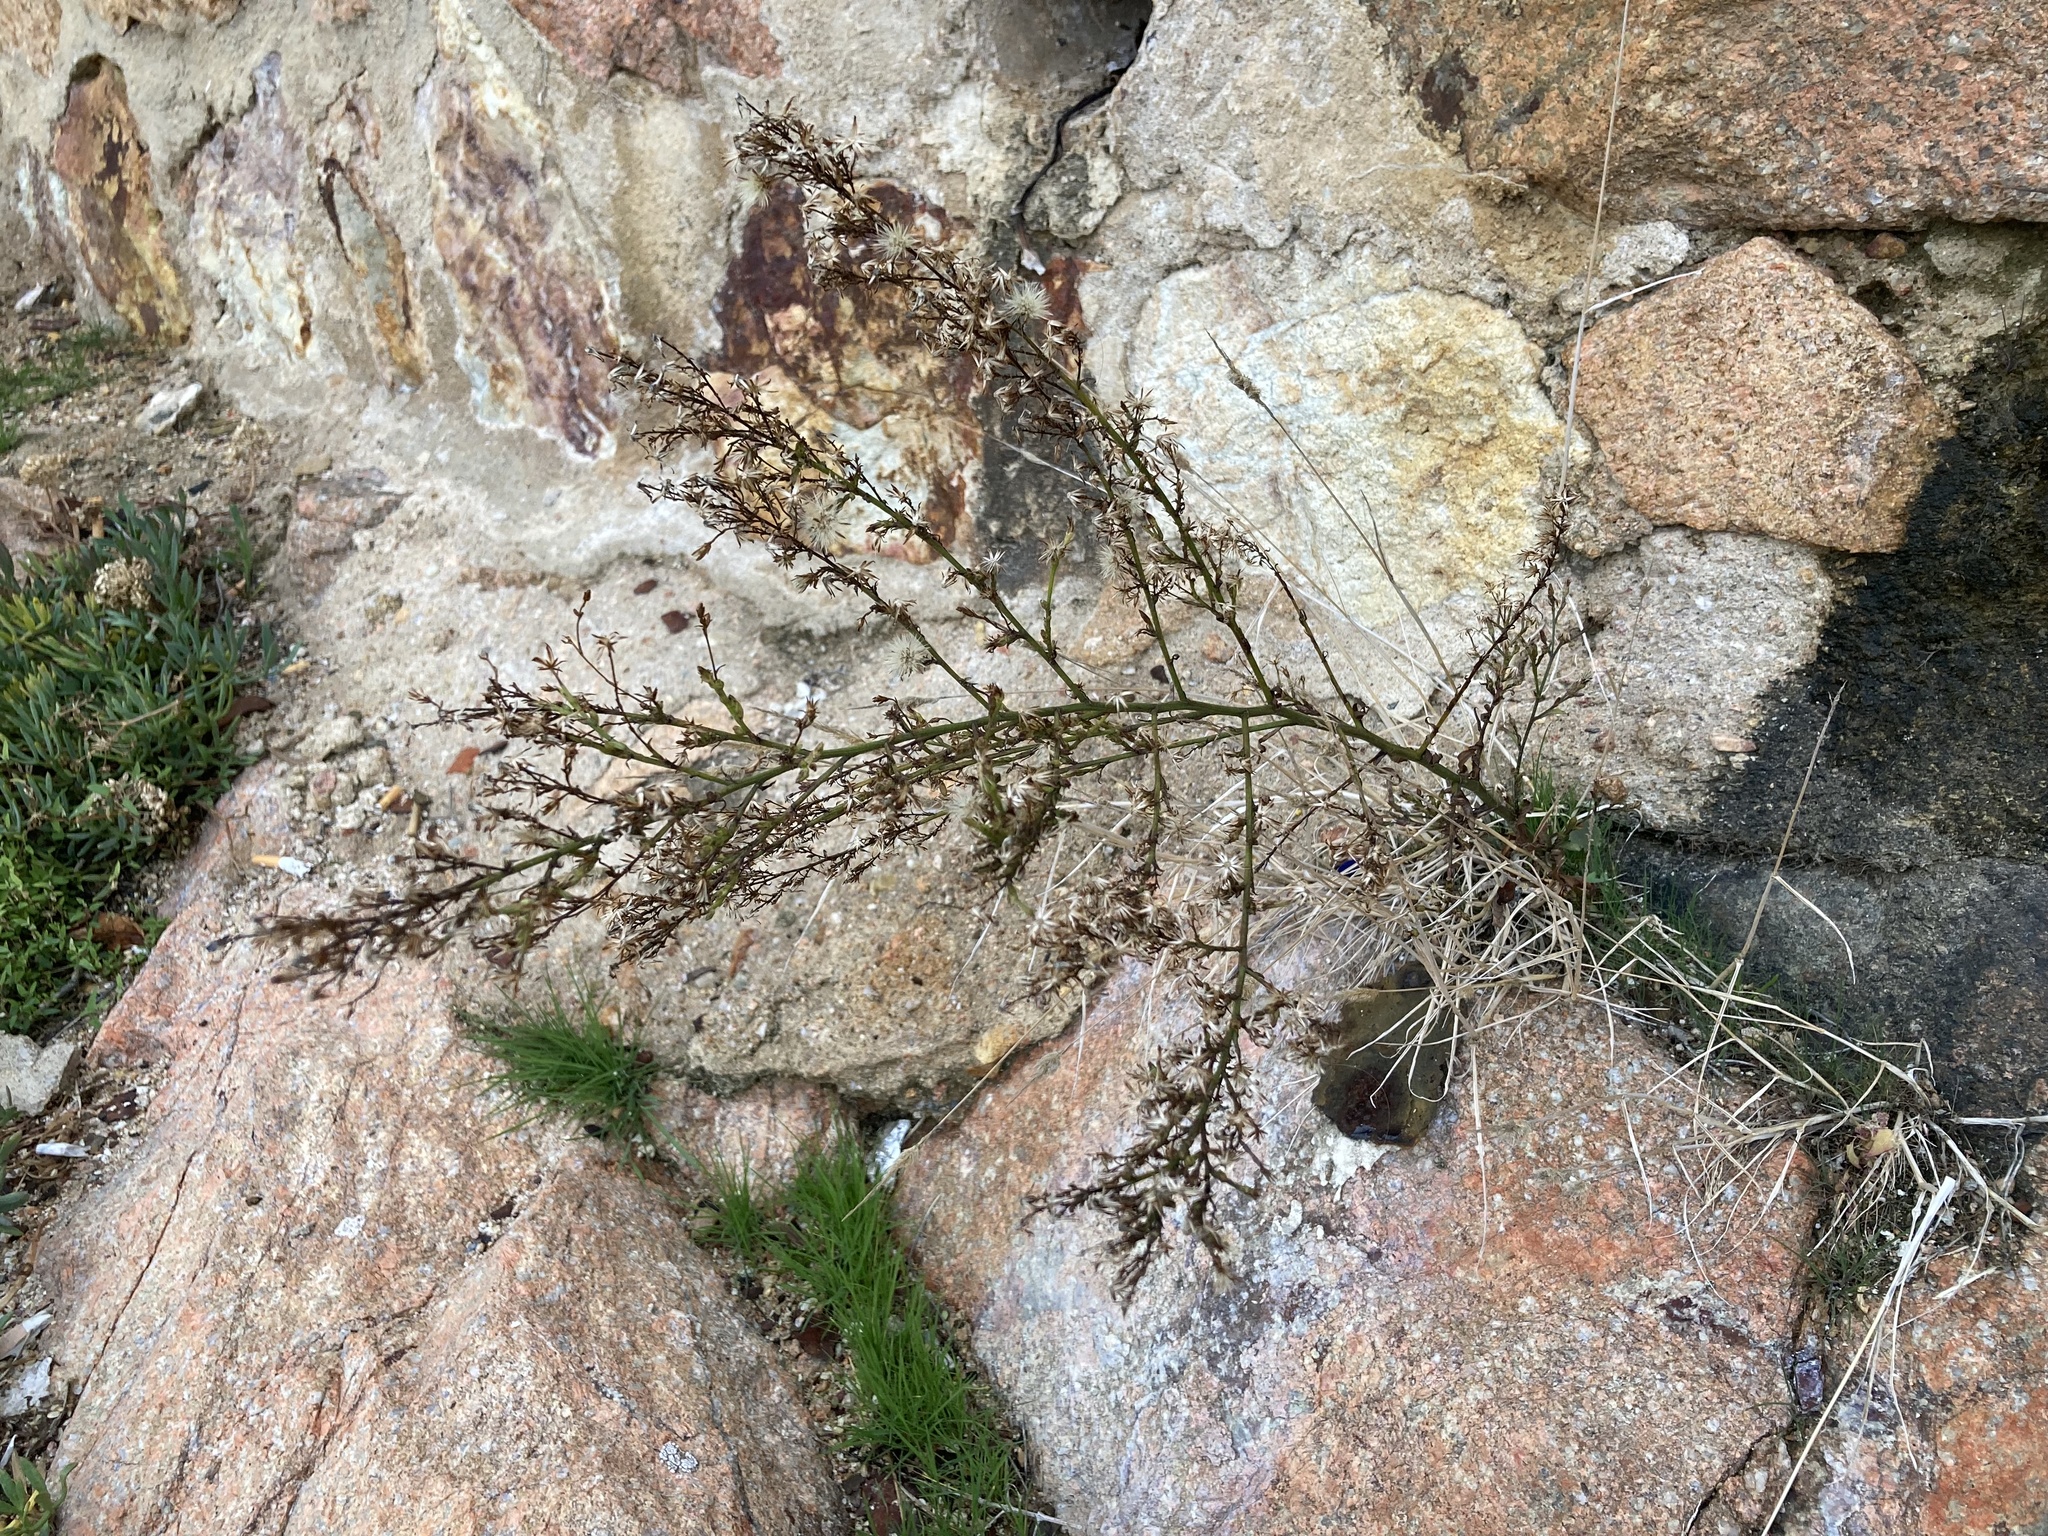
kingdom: Plantae
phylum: Tracheophyta
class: Magnoliopsida
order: Asterales
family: Asteraceae
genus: Symphyotrichum
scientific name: Symphyotrichum squamatum
